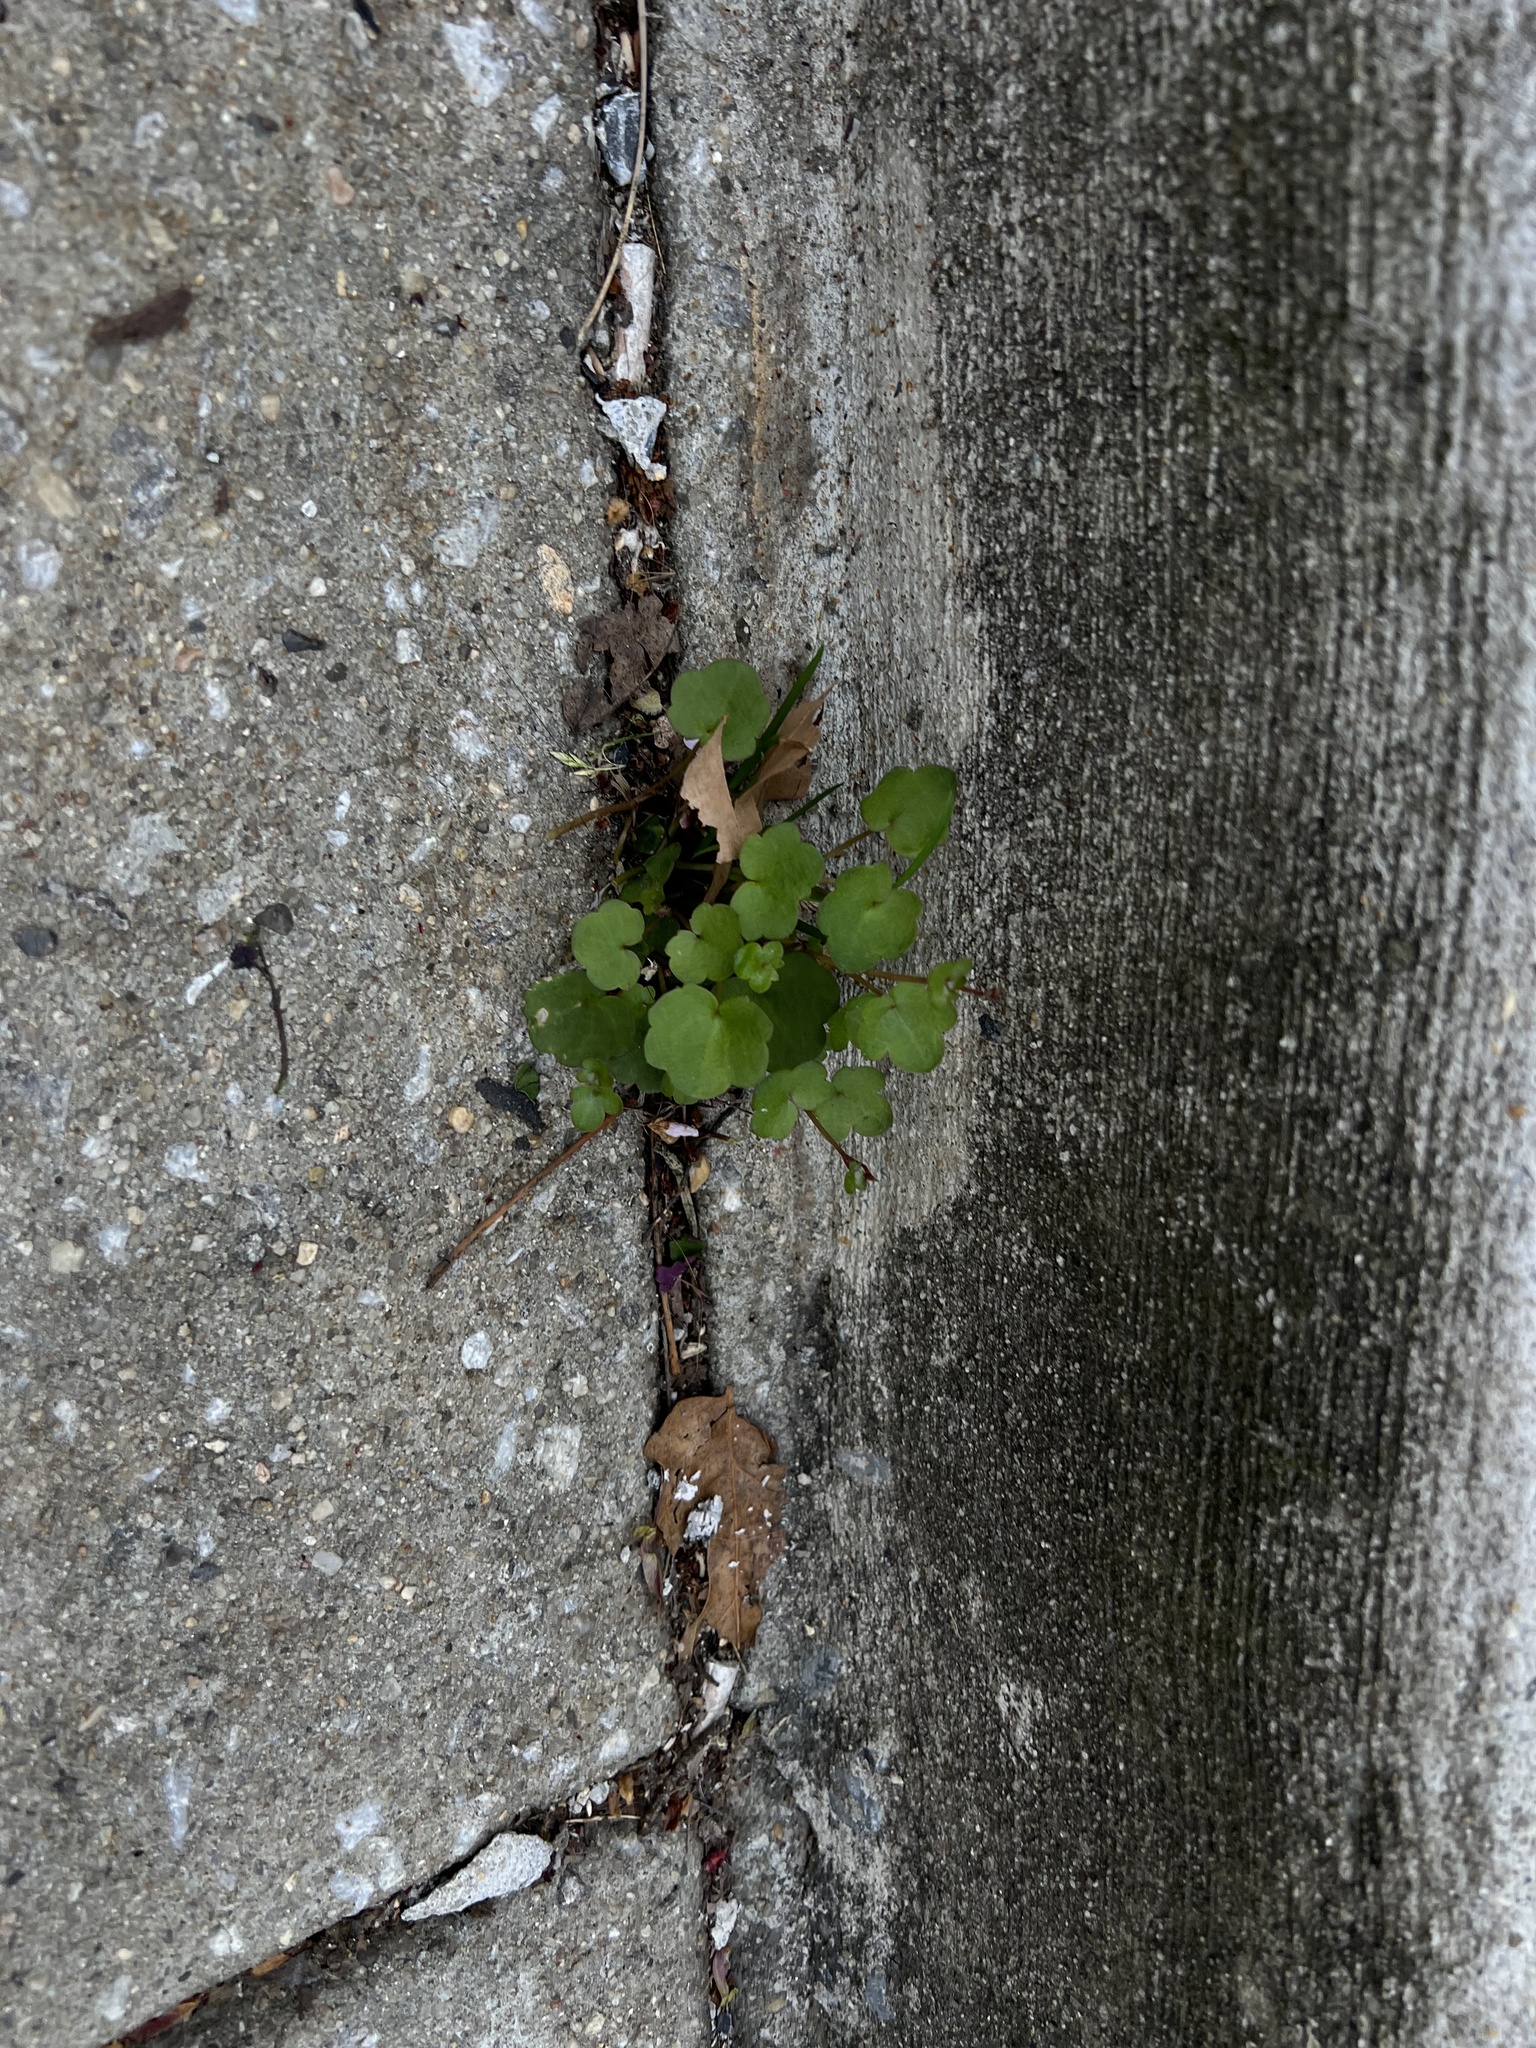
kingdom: Plantae
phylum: Tracheophyta
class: Magnoliopsida
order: Lamiales
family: Plantaginaceae
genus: Cymbalaria
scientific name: Cymbalaria muralis
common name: Ivy-leaved toadflax
